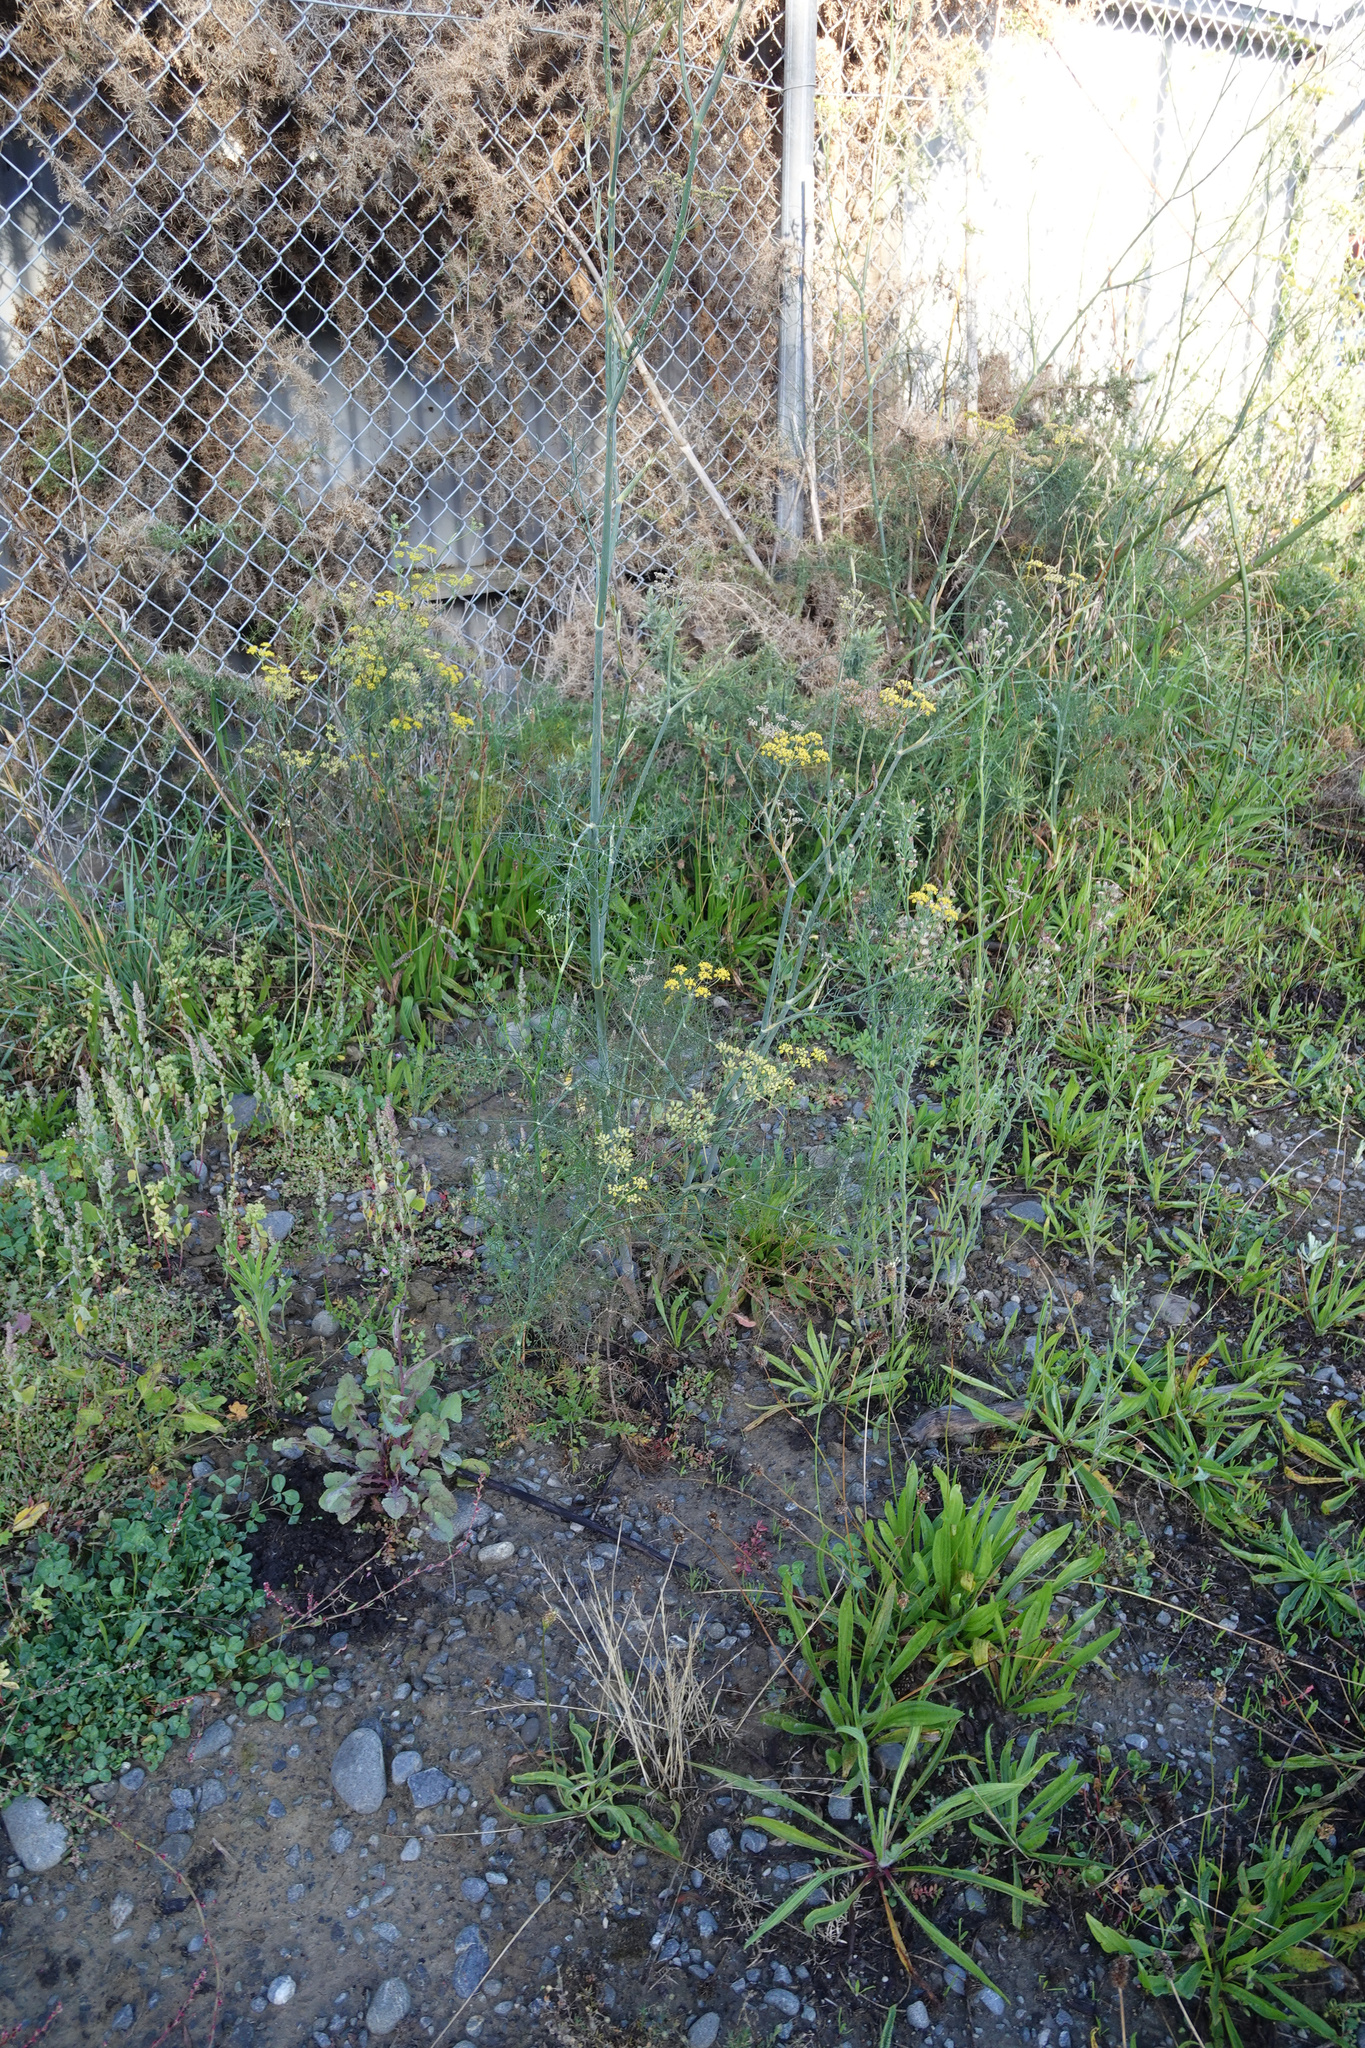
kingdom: Plantae
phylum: Tracheophyta
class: Magnoliopsida
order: Apiales
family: Apiaceae
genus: Foeniculum
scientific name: Foeniculum vulgare
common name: Fennel
